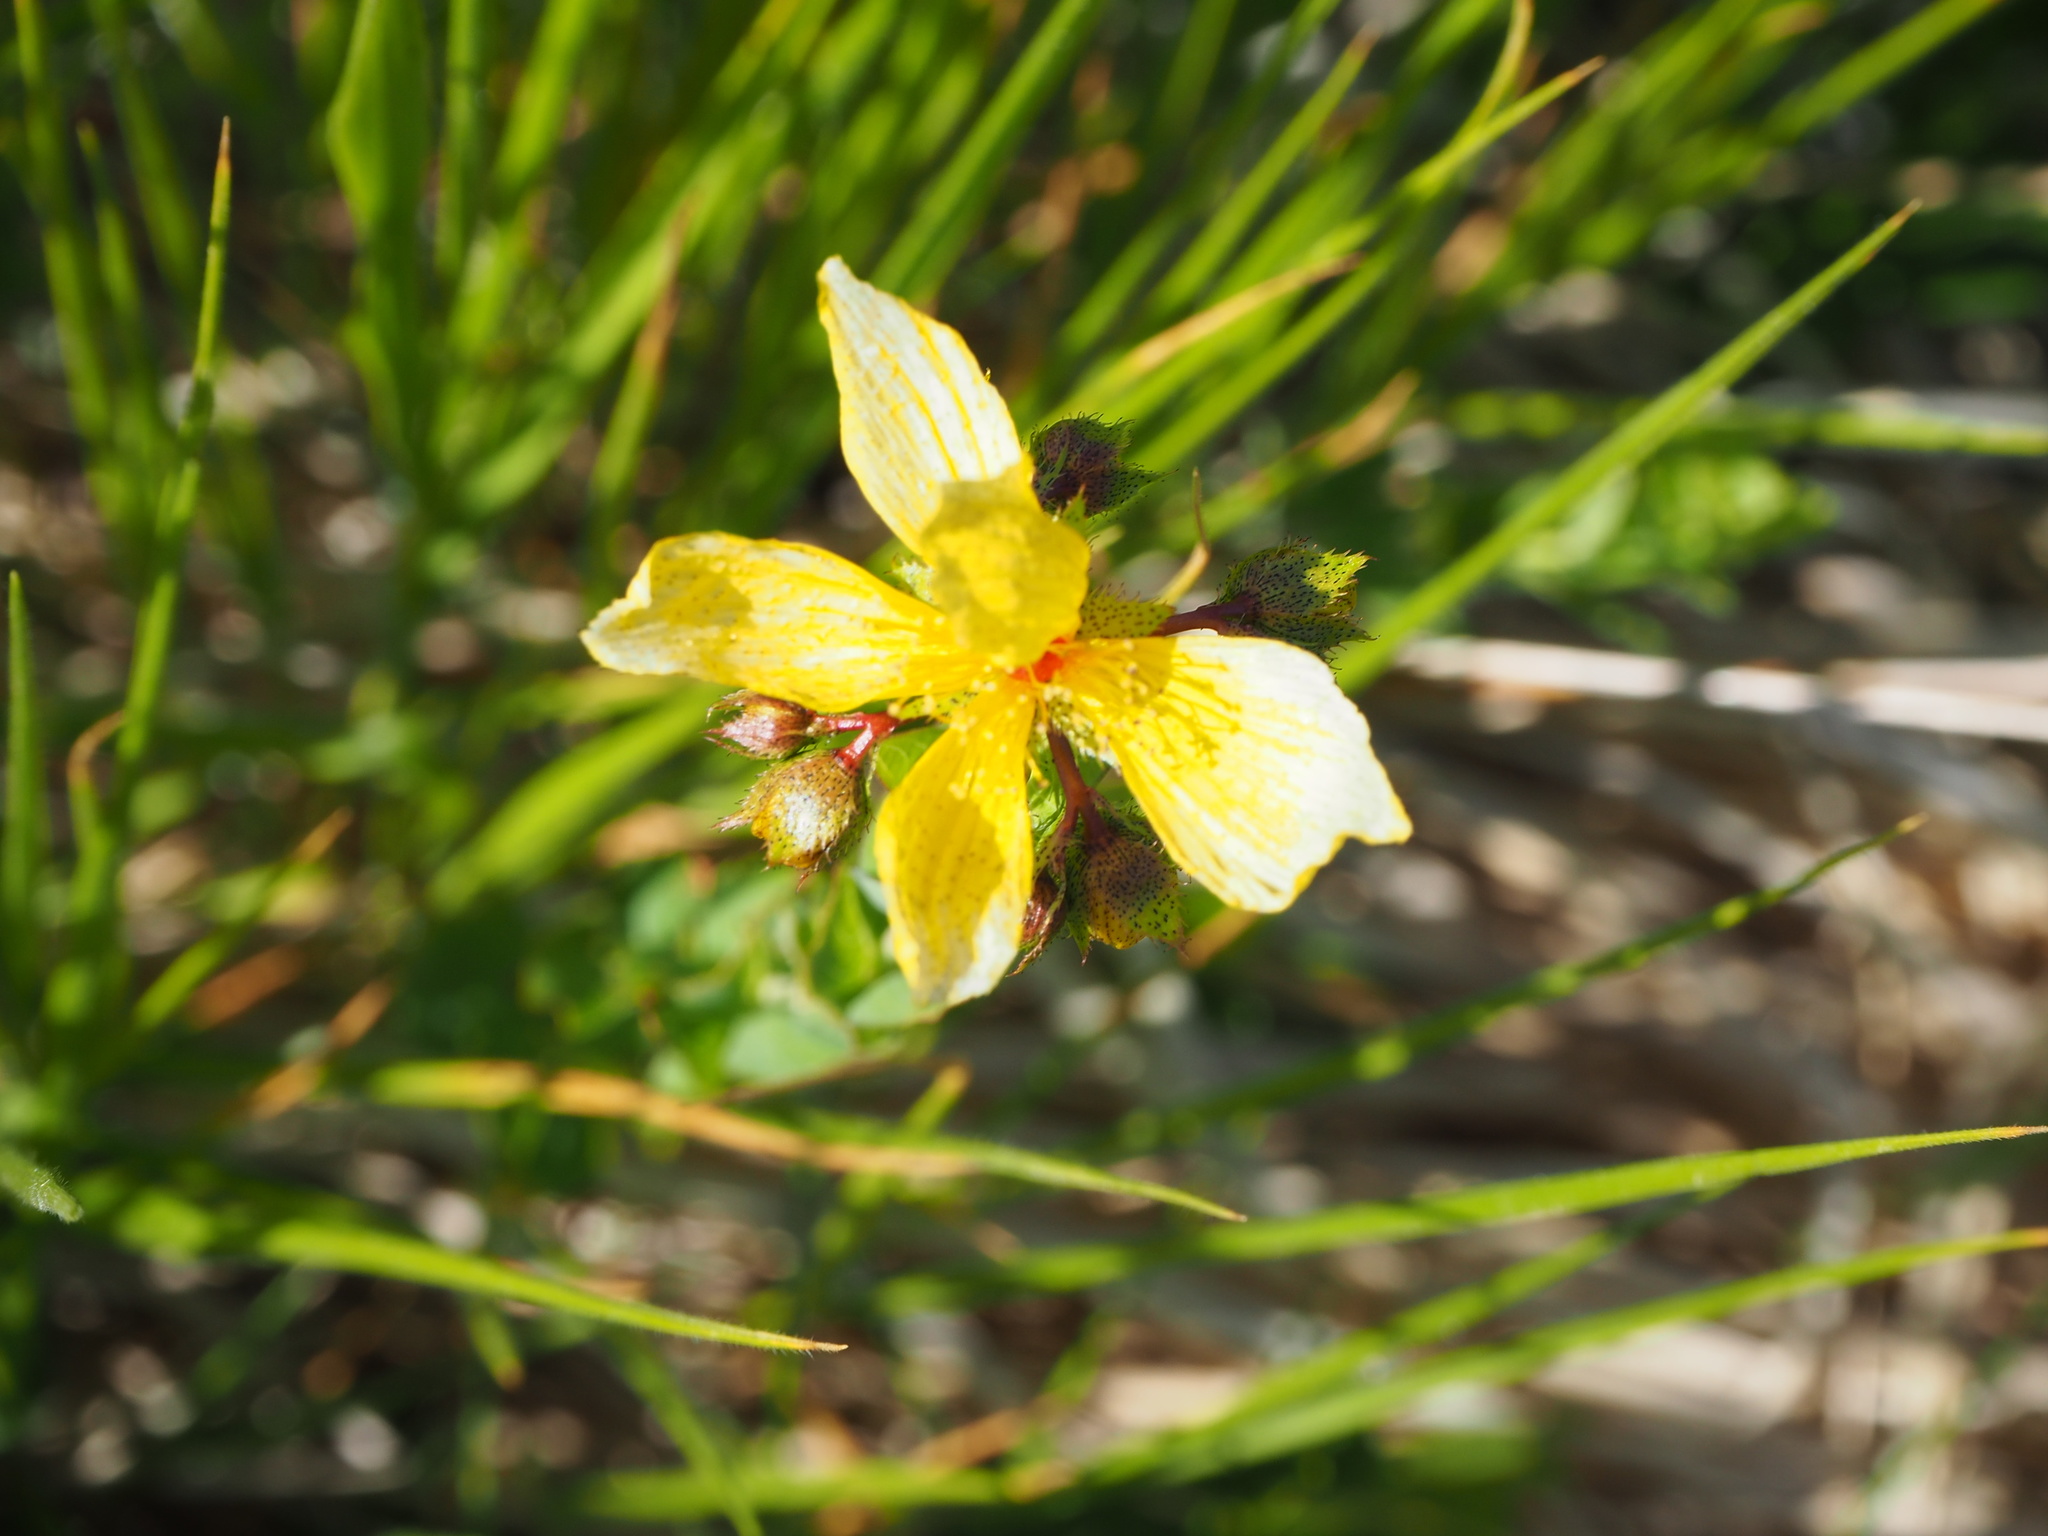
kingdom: Plantae
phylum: Tracheophyta
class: Magnoliopsida
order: Malpighiales
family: Hypericaceae
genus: Hypericum
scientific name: Hypericum richeri
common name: Alpine st john's-wort
